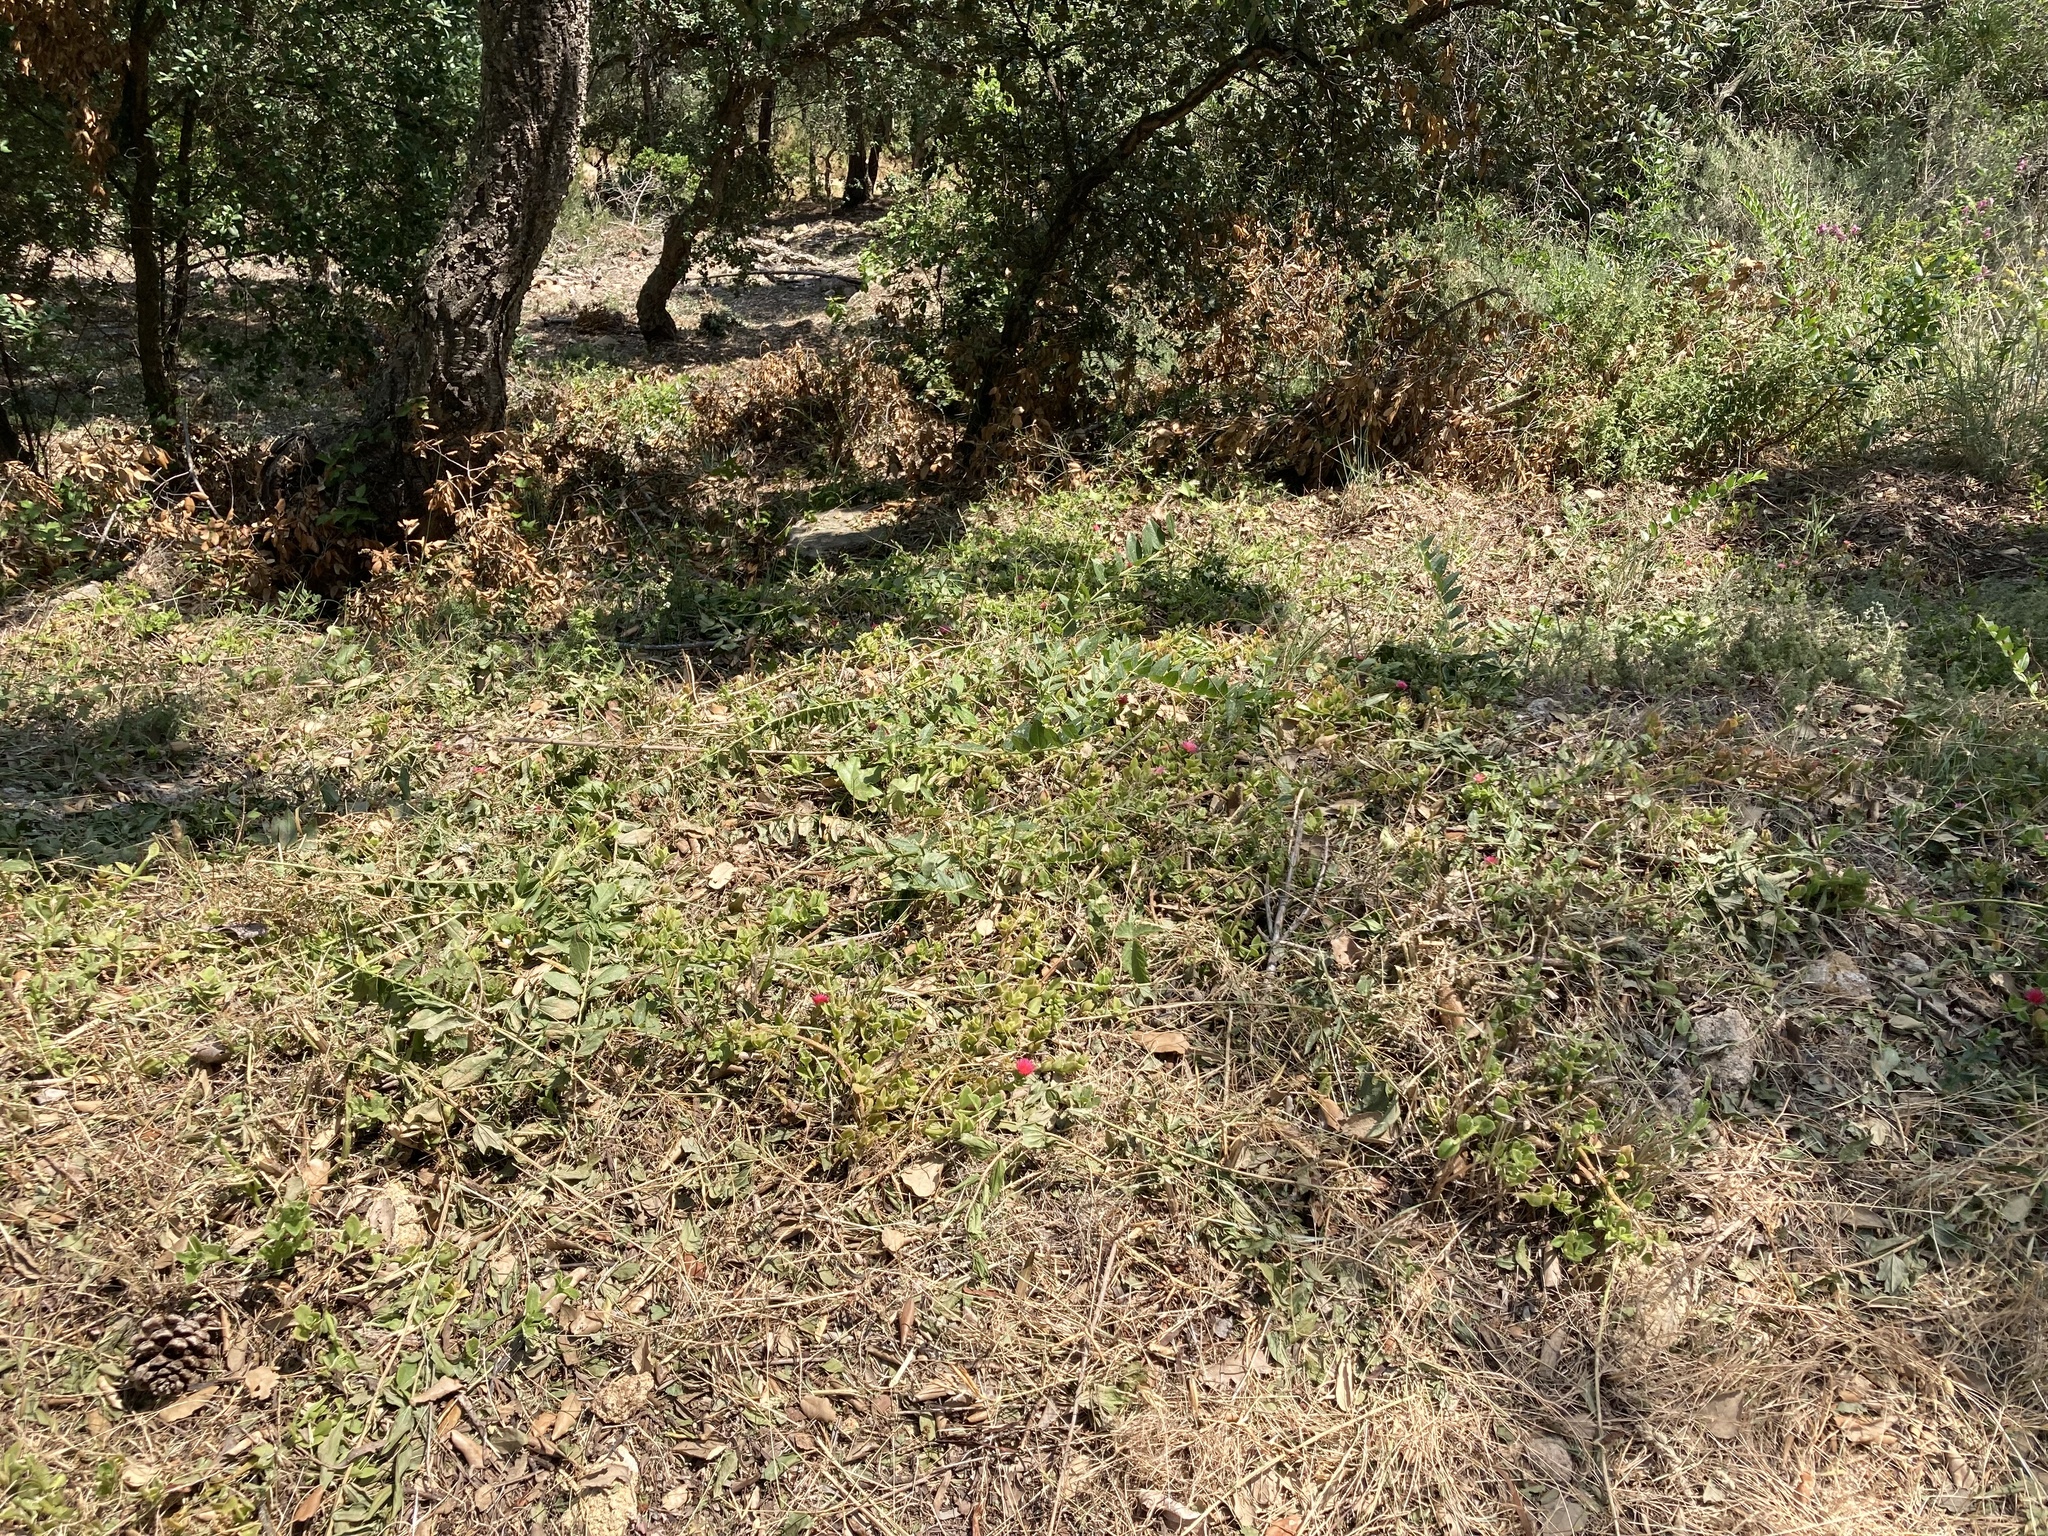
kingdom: Plantae
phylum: Tracheophyta
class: Magnoliopsida
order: Caryophyllales
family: Aizoaceae
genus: Mesembryanthemum
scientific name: Mesembryanthemum cordifolium
